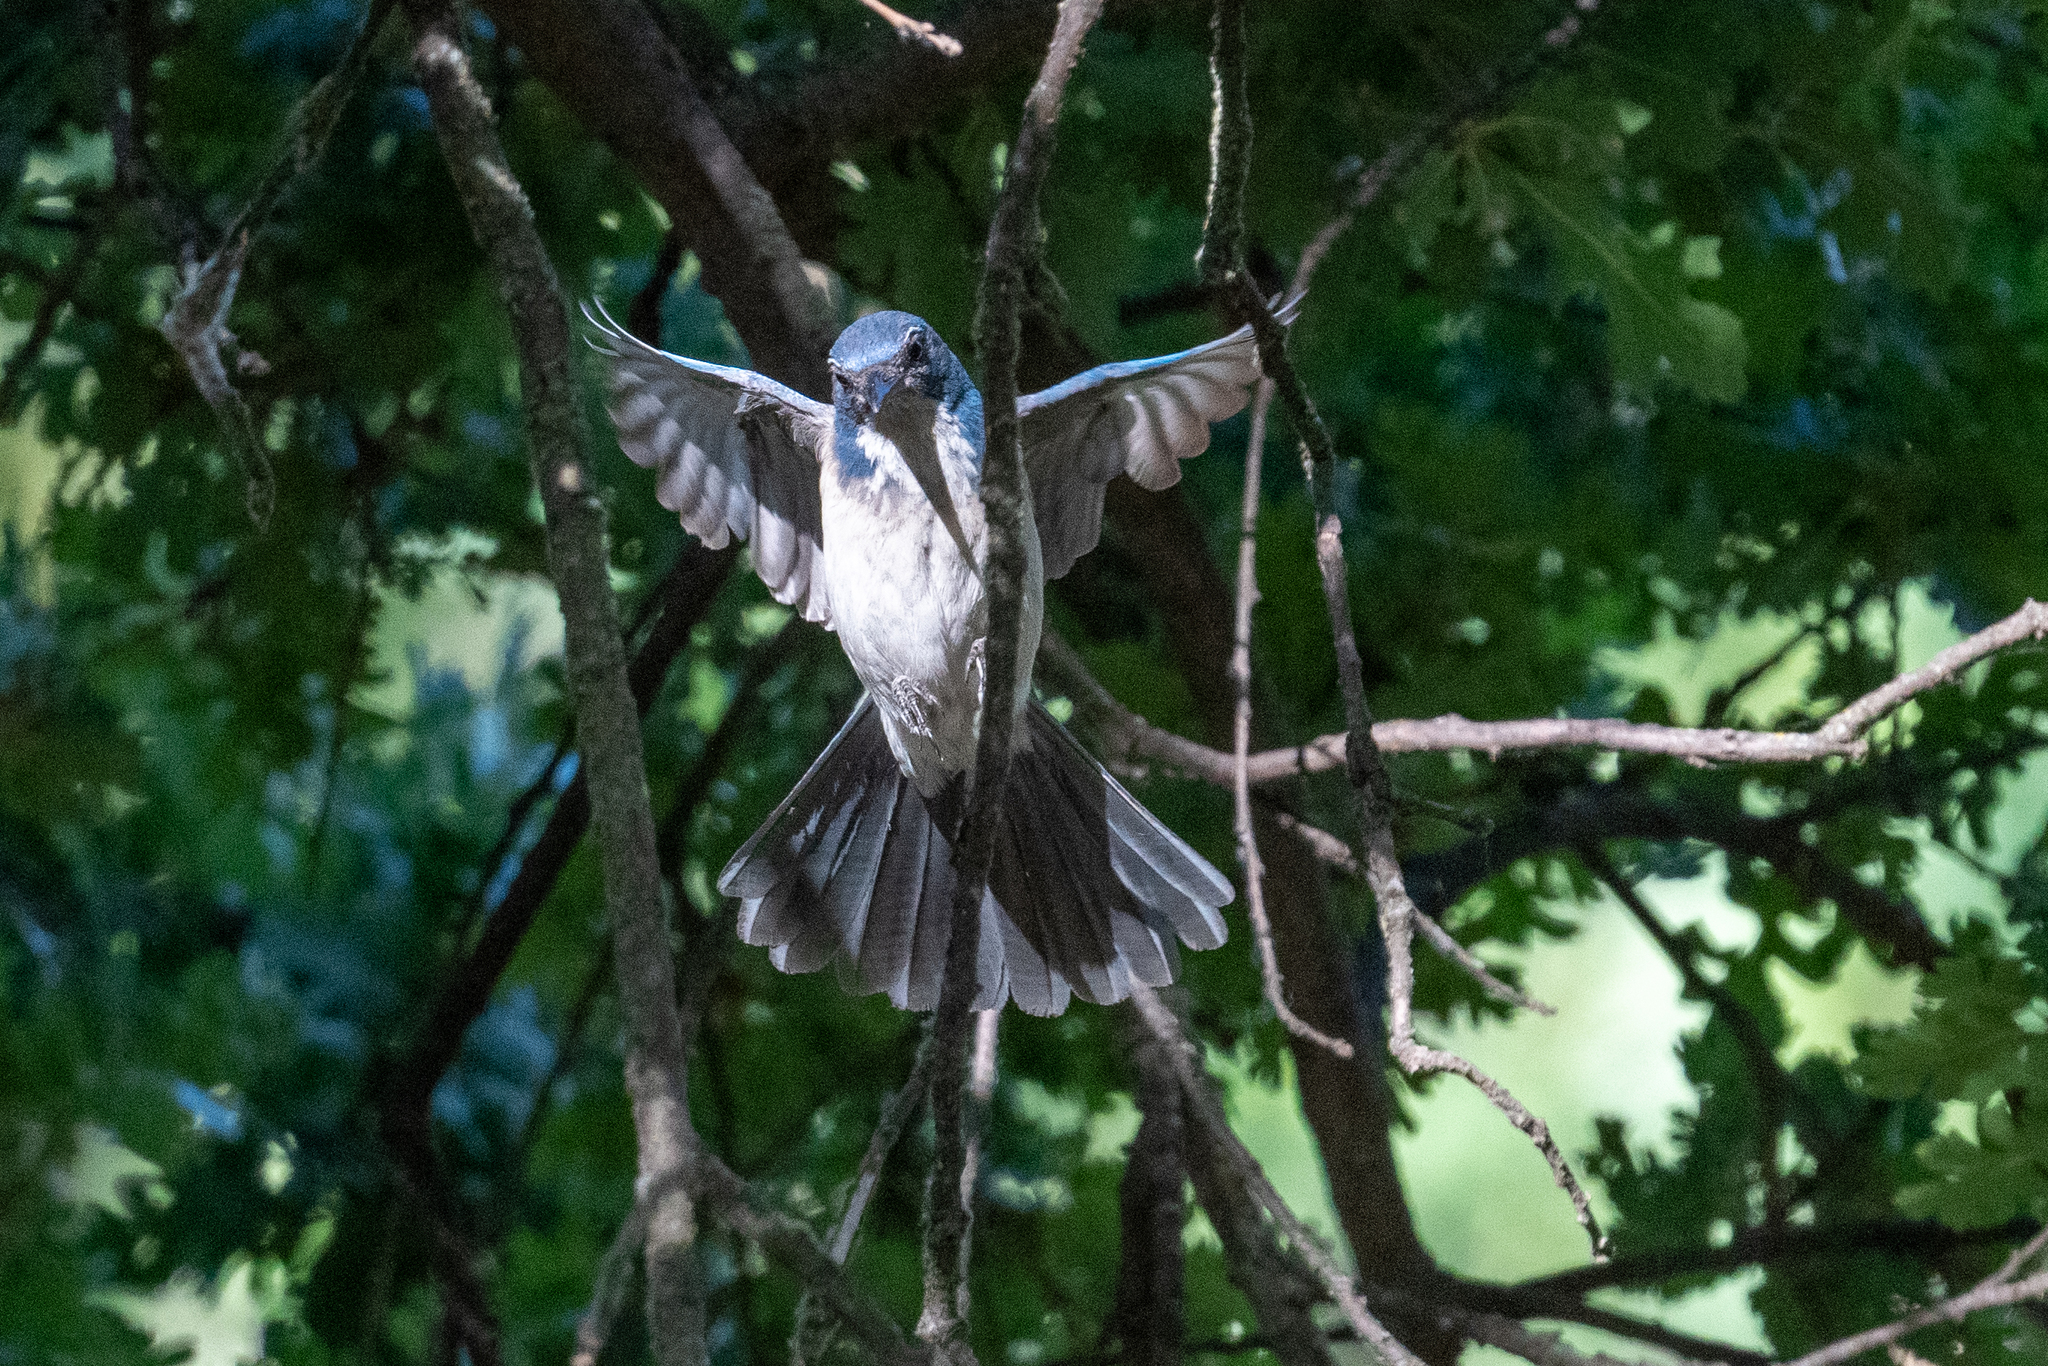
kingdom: Animalia
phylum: Chordata
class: Aves
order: Passeriformes
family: Corvidae
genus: Aphelocoma
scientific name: Aphelocoma californica
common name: California scrub-jay
